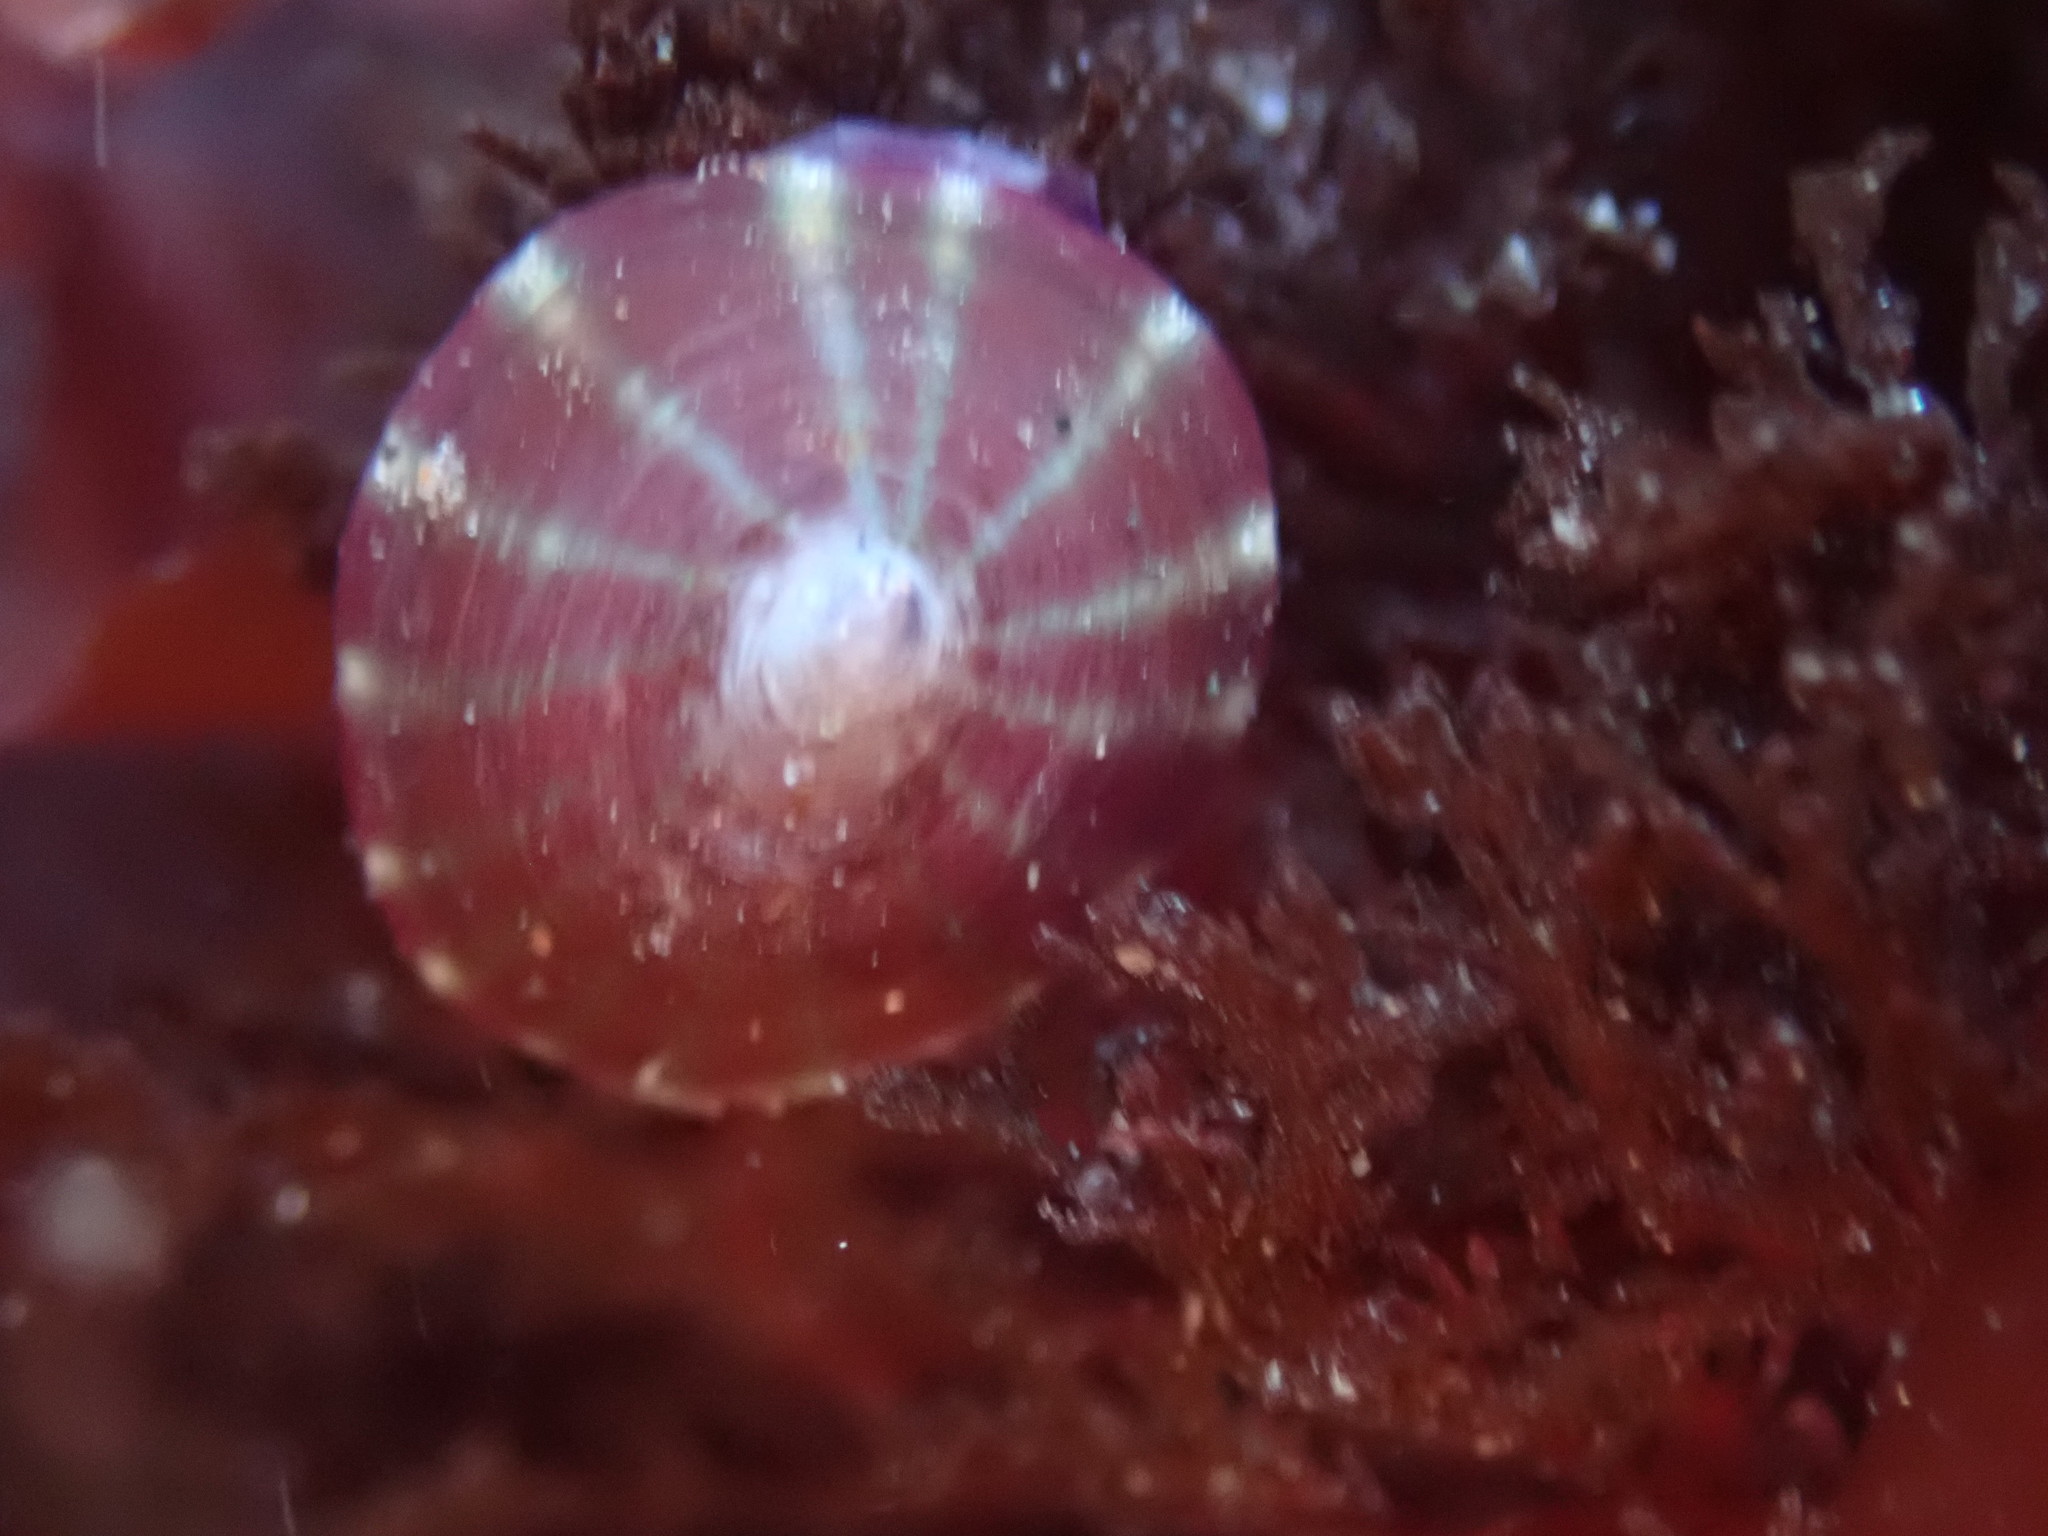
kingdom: Animalia
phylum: Mollusca
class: Gastropoda
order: Siphonariida
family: Siphonariidae
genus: Williamia
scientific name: Williamia peltoides
